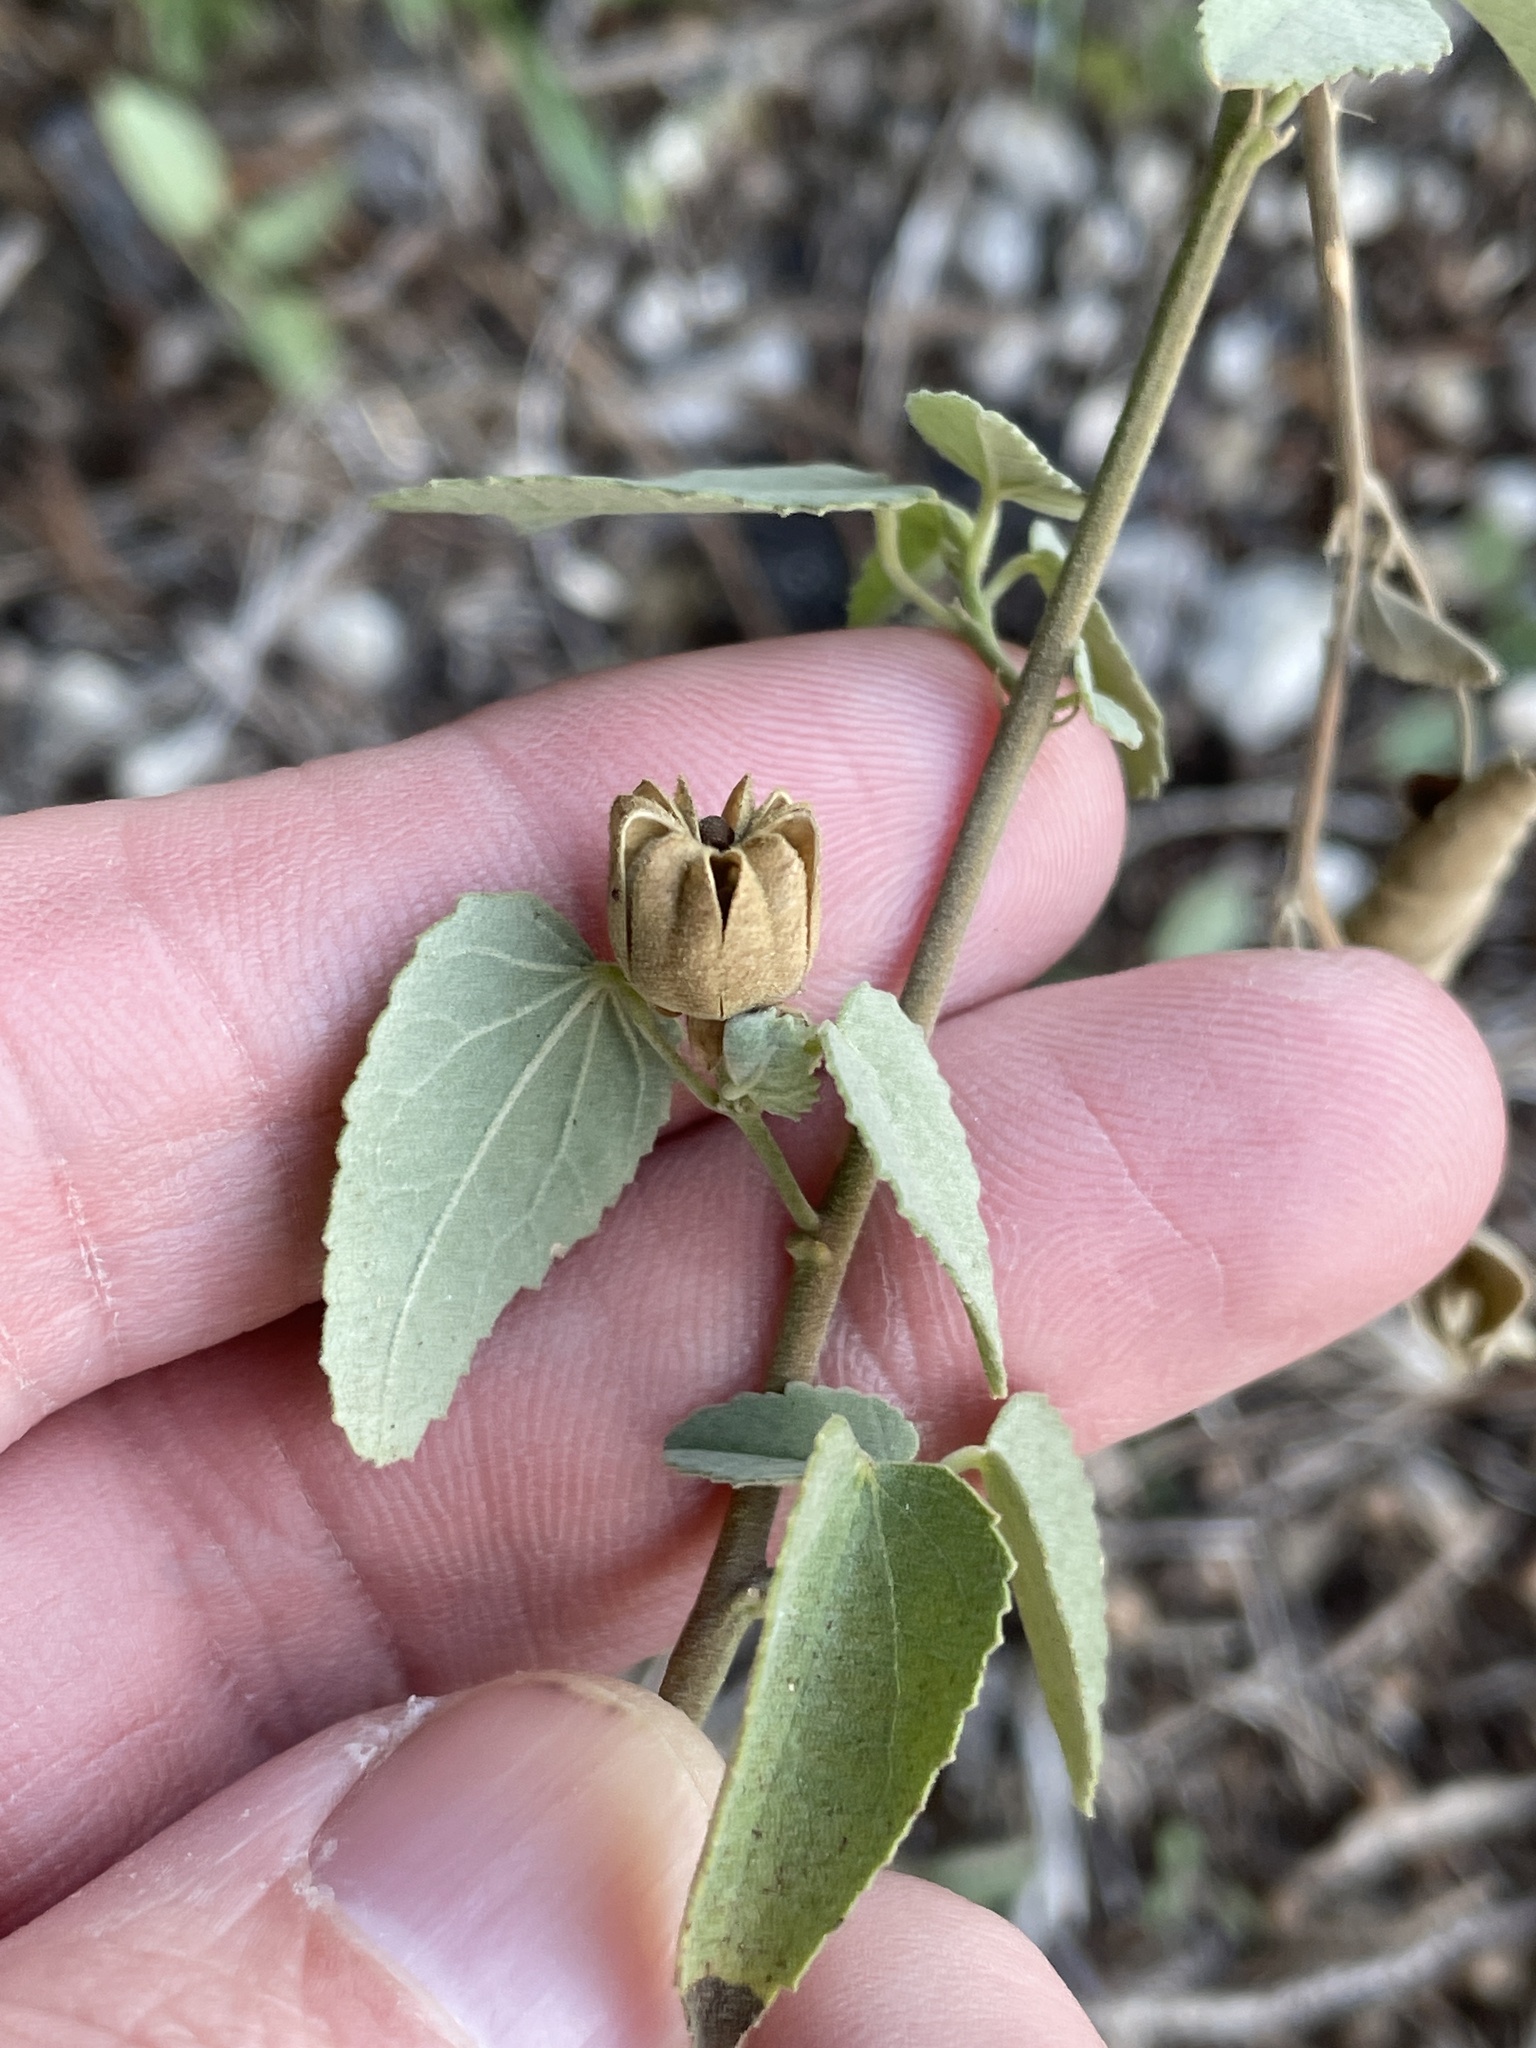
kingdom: Plantae
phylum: Tracheophyta
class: Magnoliopsida
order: Malvales
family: Malvaceae
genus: Abutilon
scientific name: Abutilon fruticosum
